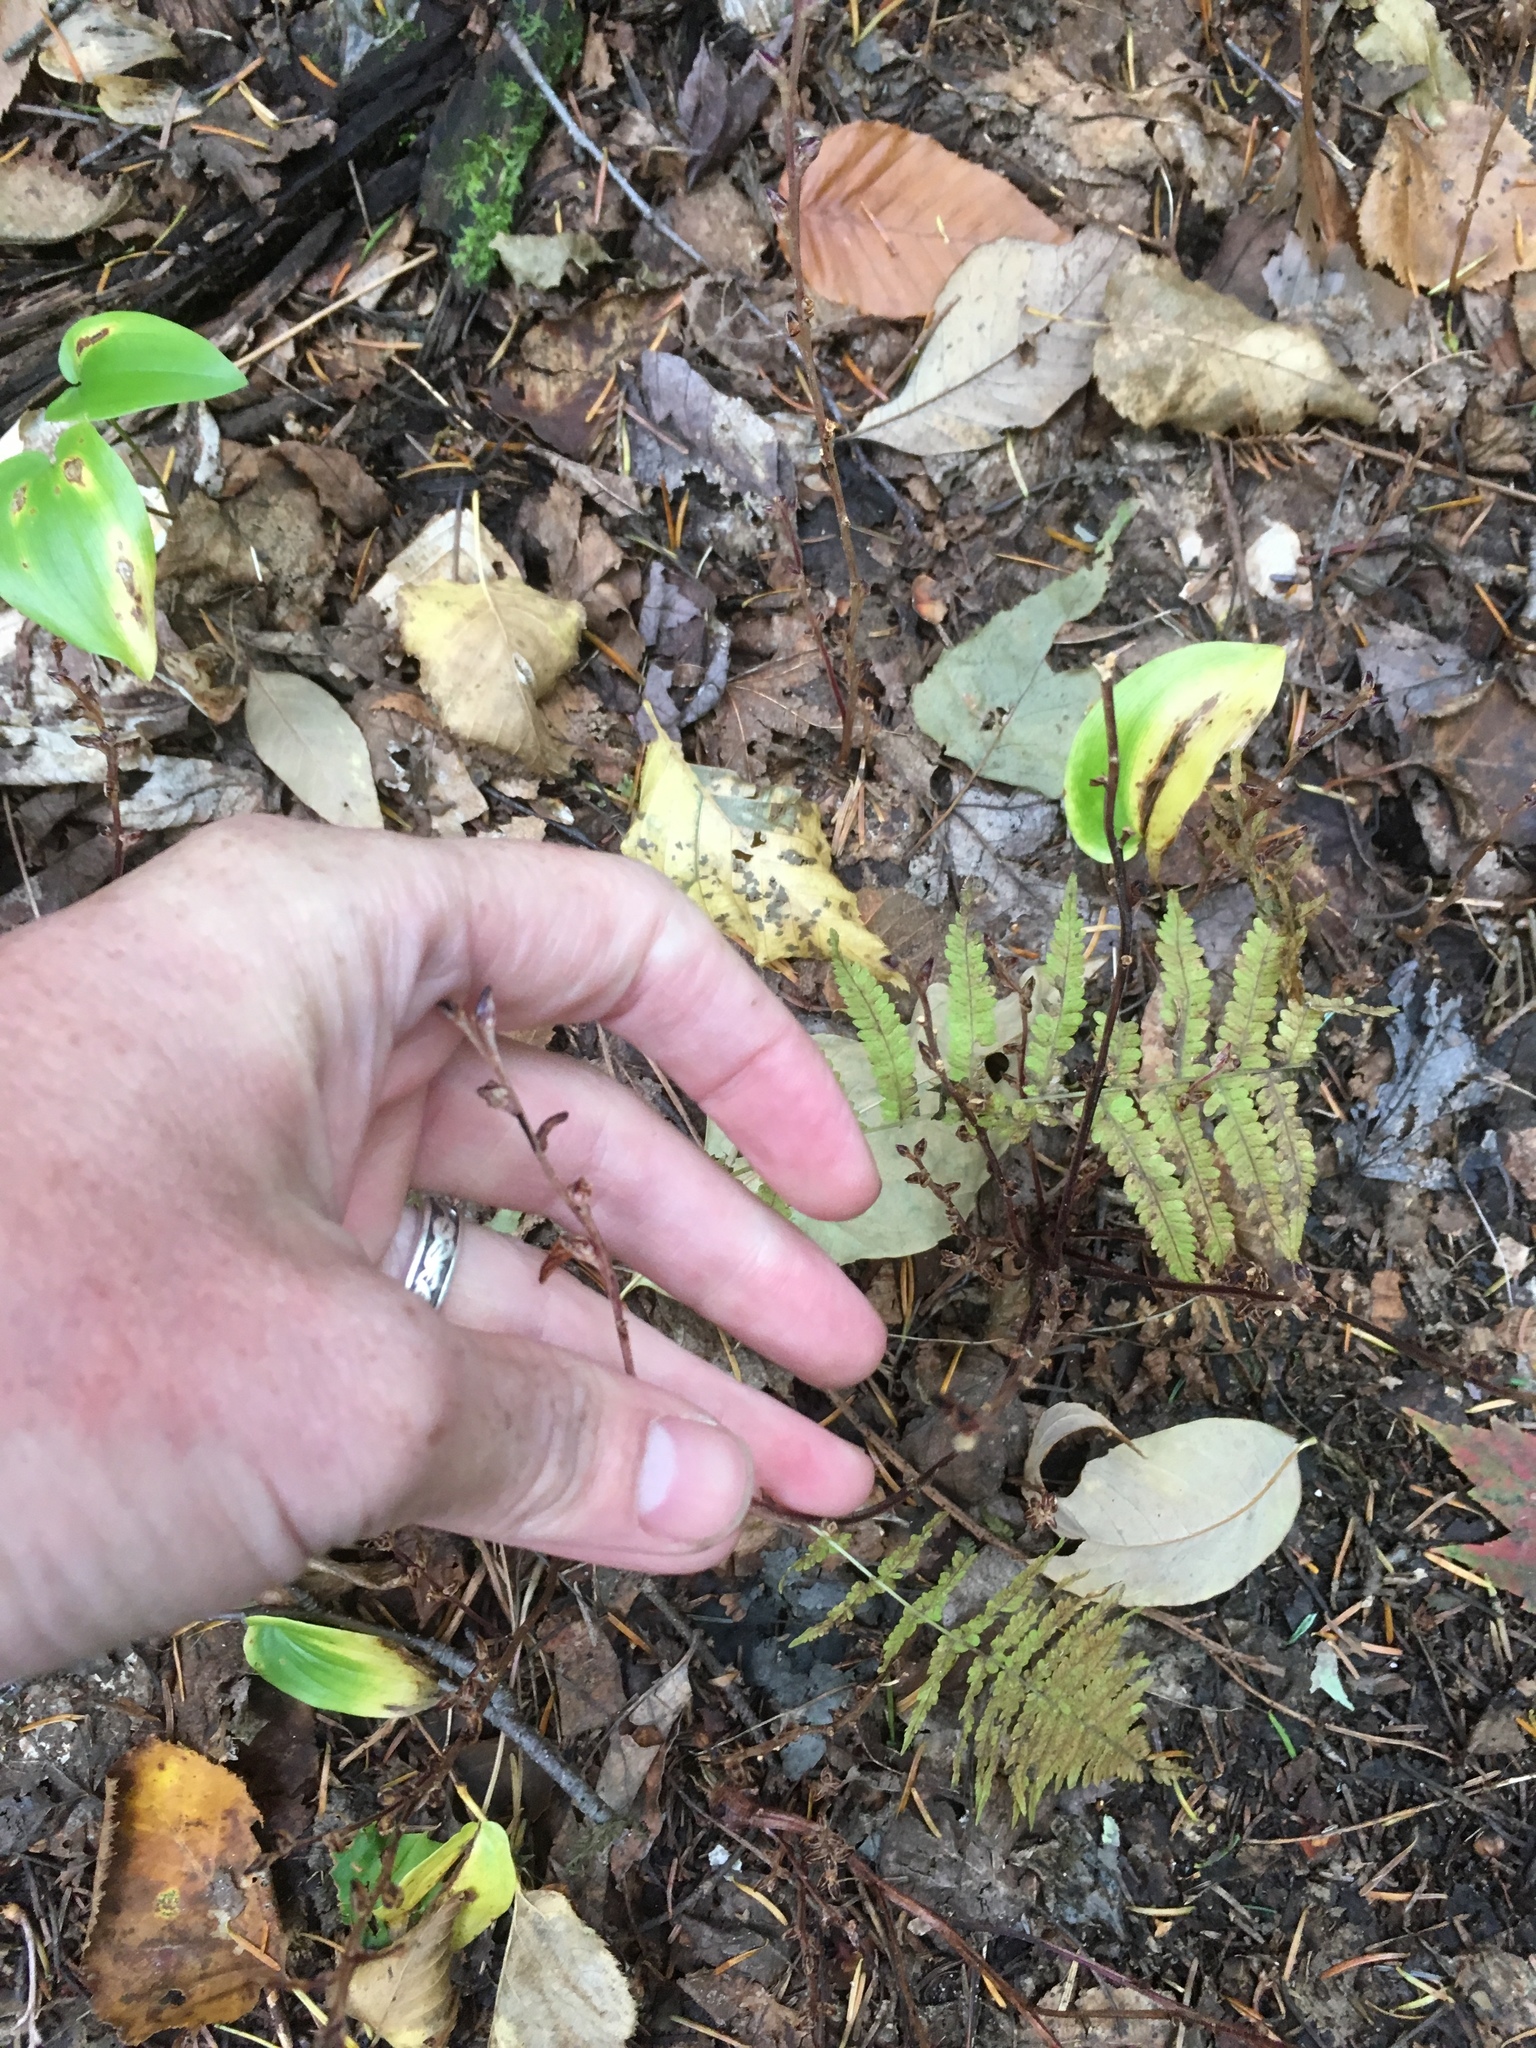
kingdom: Plantae
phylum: Tracheophyta
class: Magnoliopsida
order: Lamiales
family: Orobanchaceae
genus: Epifagus
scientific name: Epifagus virginiana
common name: Beechdrops
